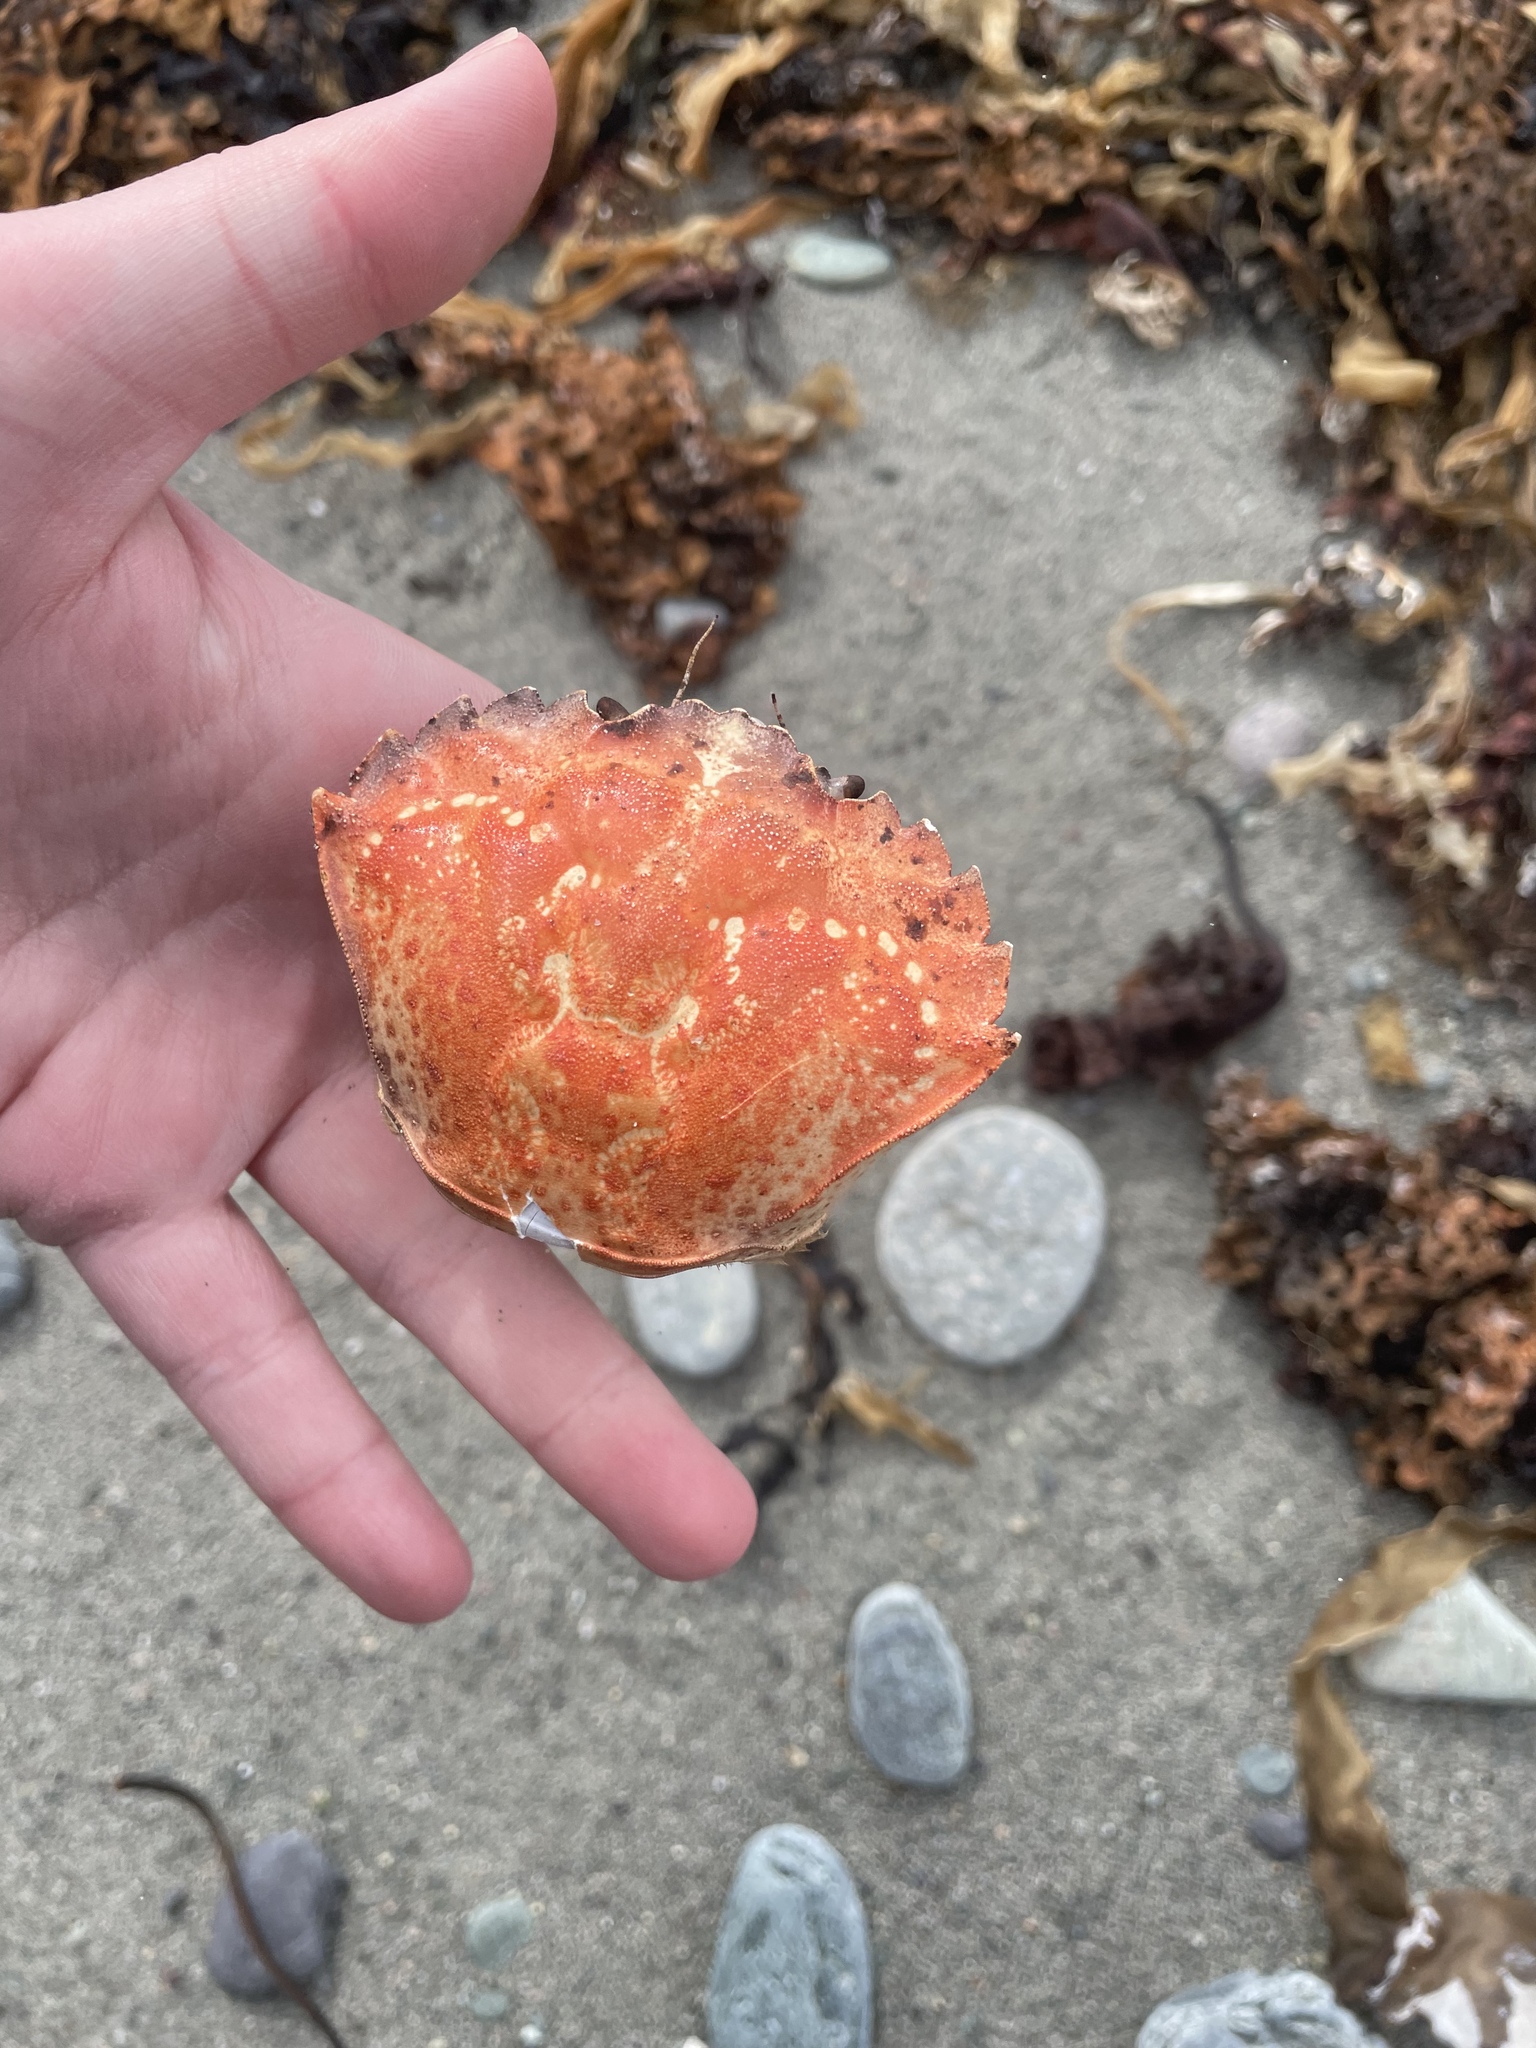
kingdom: Animalia
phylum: Arthropoda
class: Malacostraca
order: Decapoda
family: Carcinidae
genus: Carcinus
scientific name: Carcinus maenas
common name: European green crab
